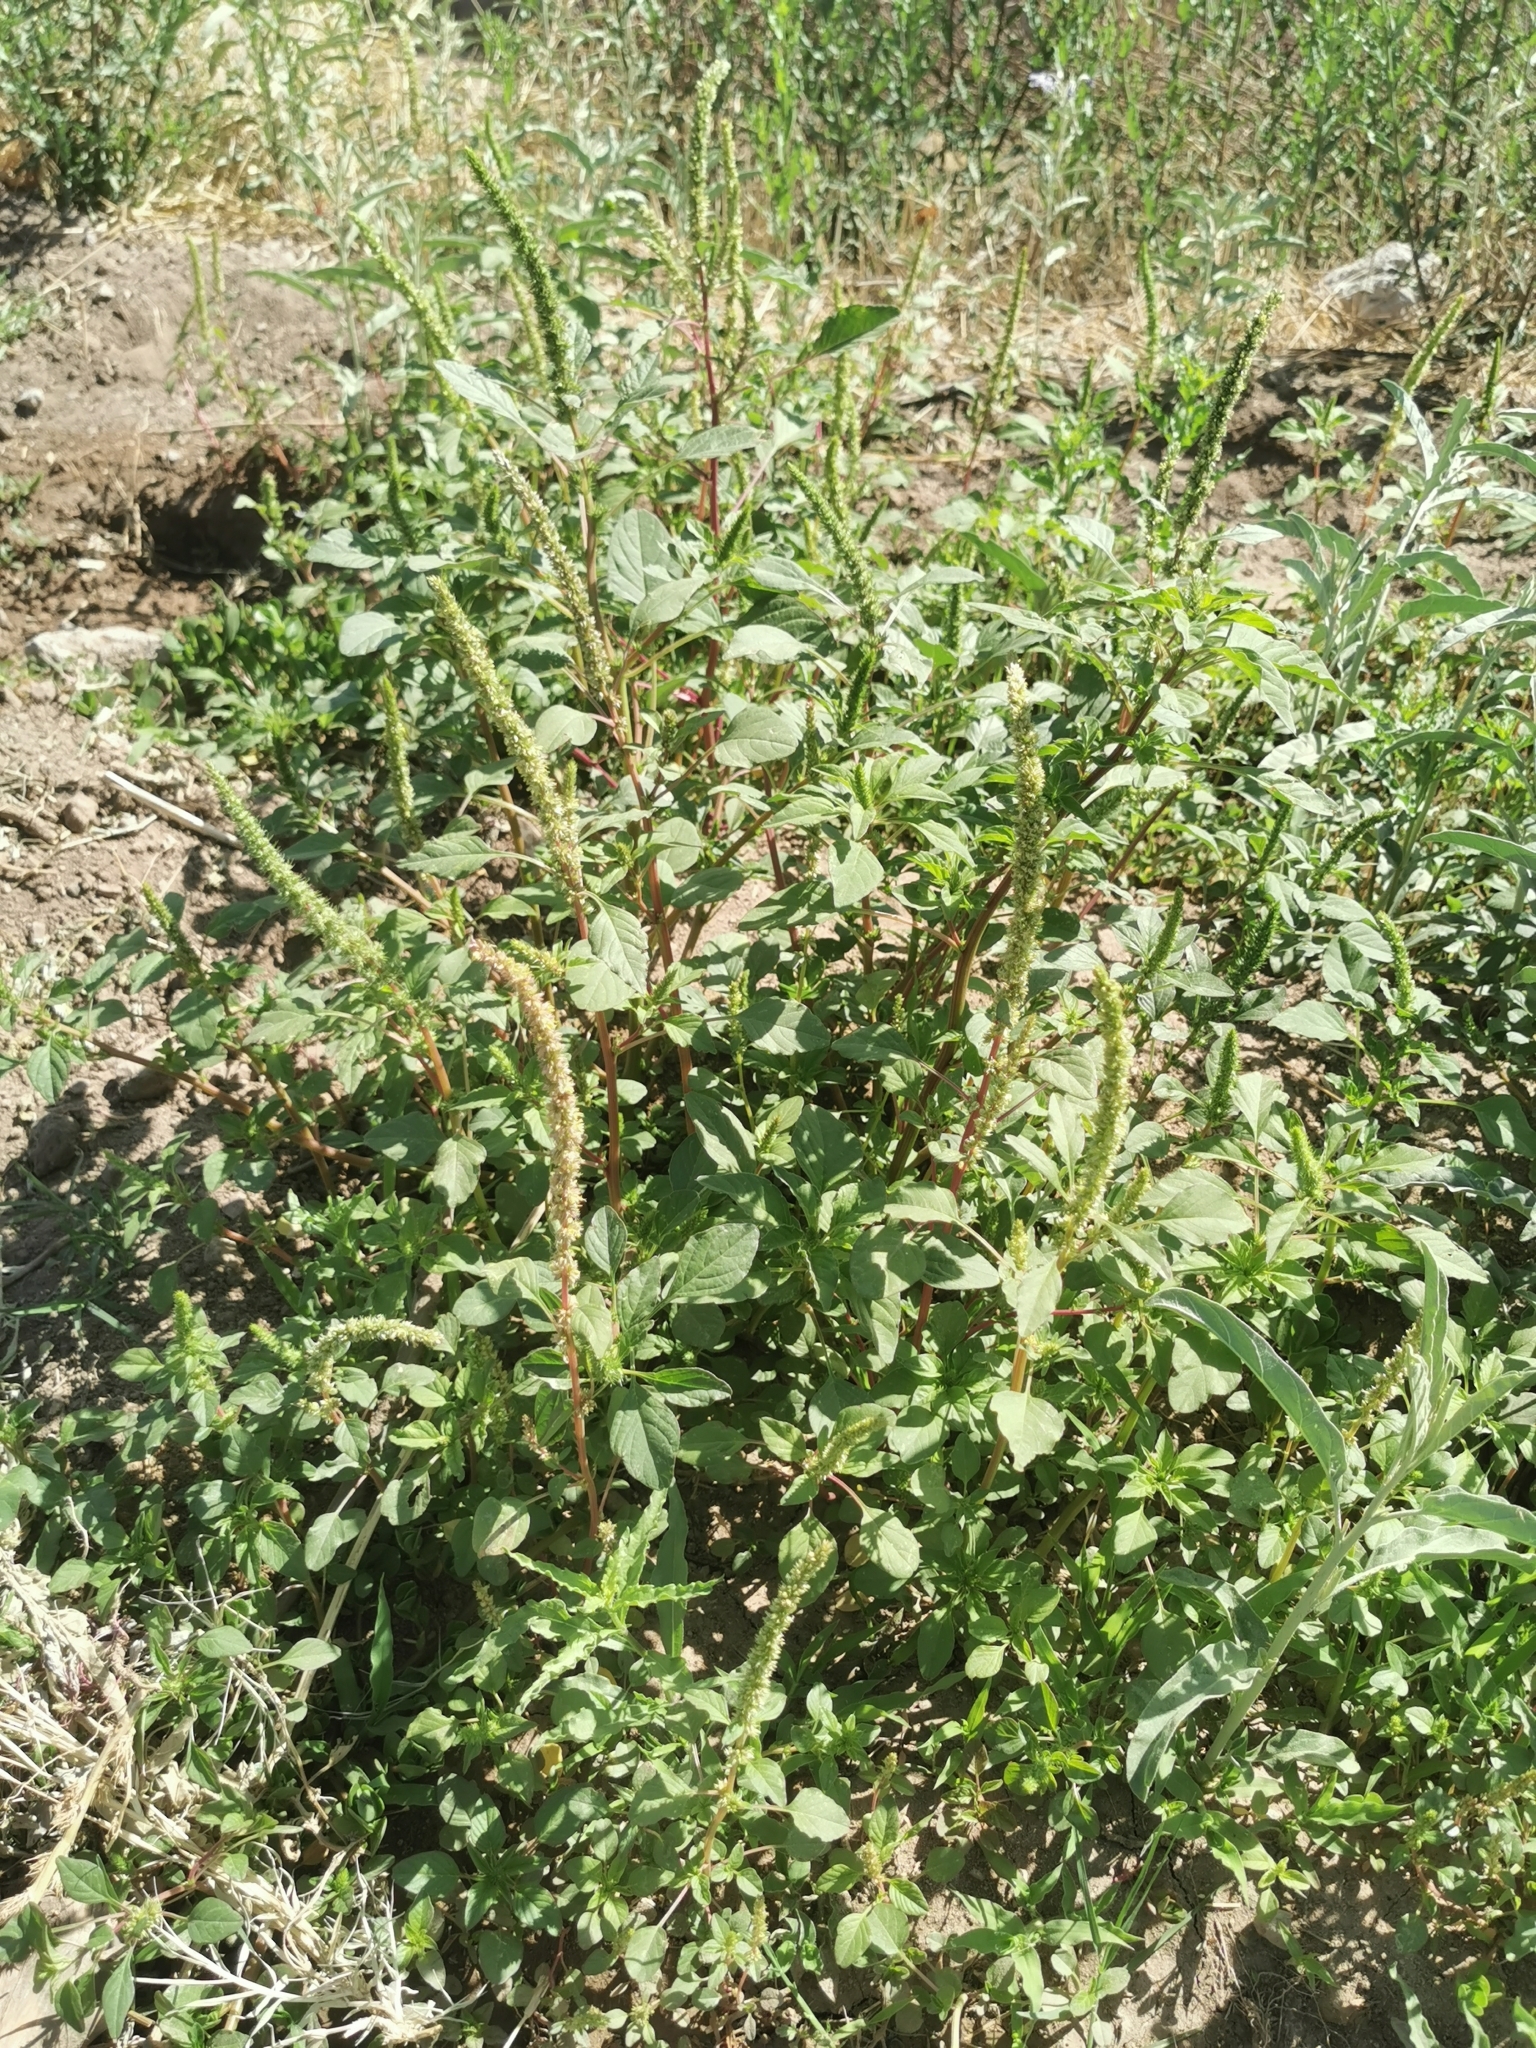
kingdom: Plantae
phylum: Tracheophyta
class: Magnoliopsida
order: Caryophyllales
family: Amaranthaceae
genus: Amaranthus
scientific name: Amaranthus palmeri
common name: Dioecious amaranth
